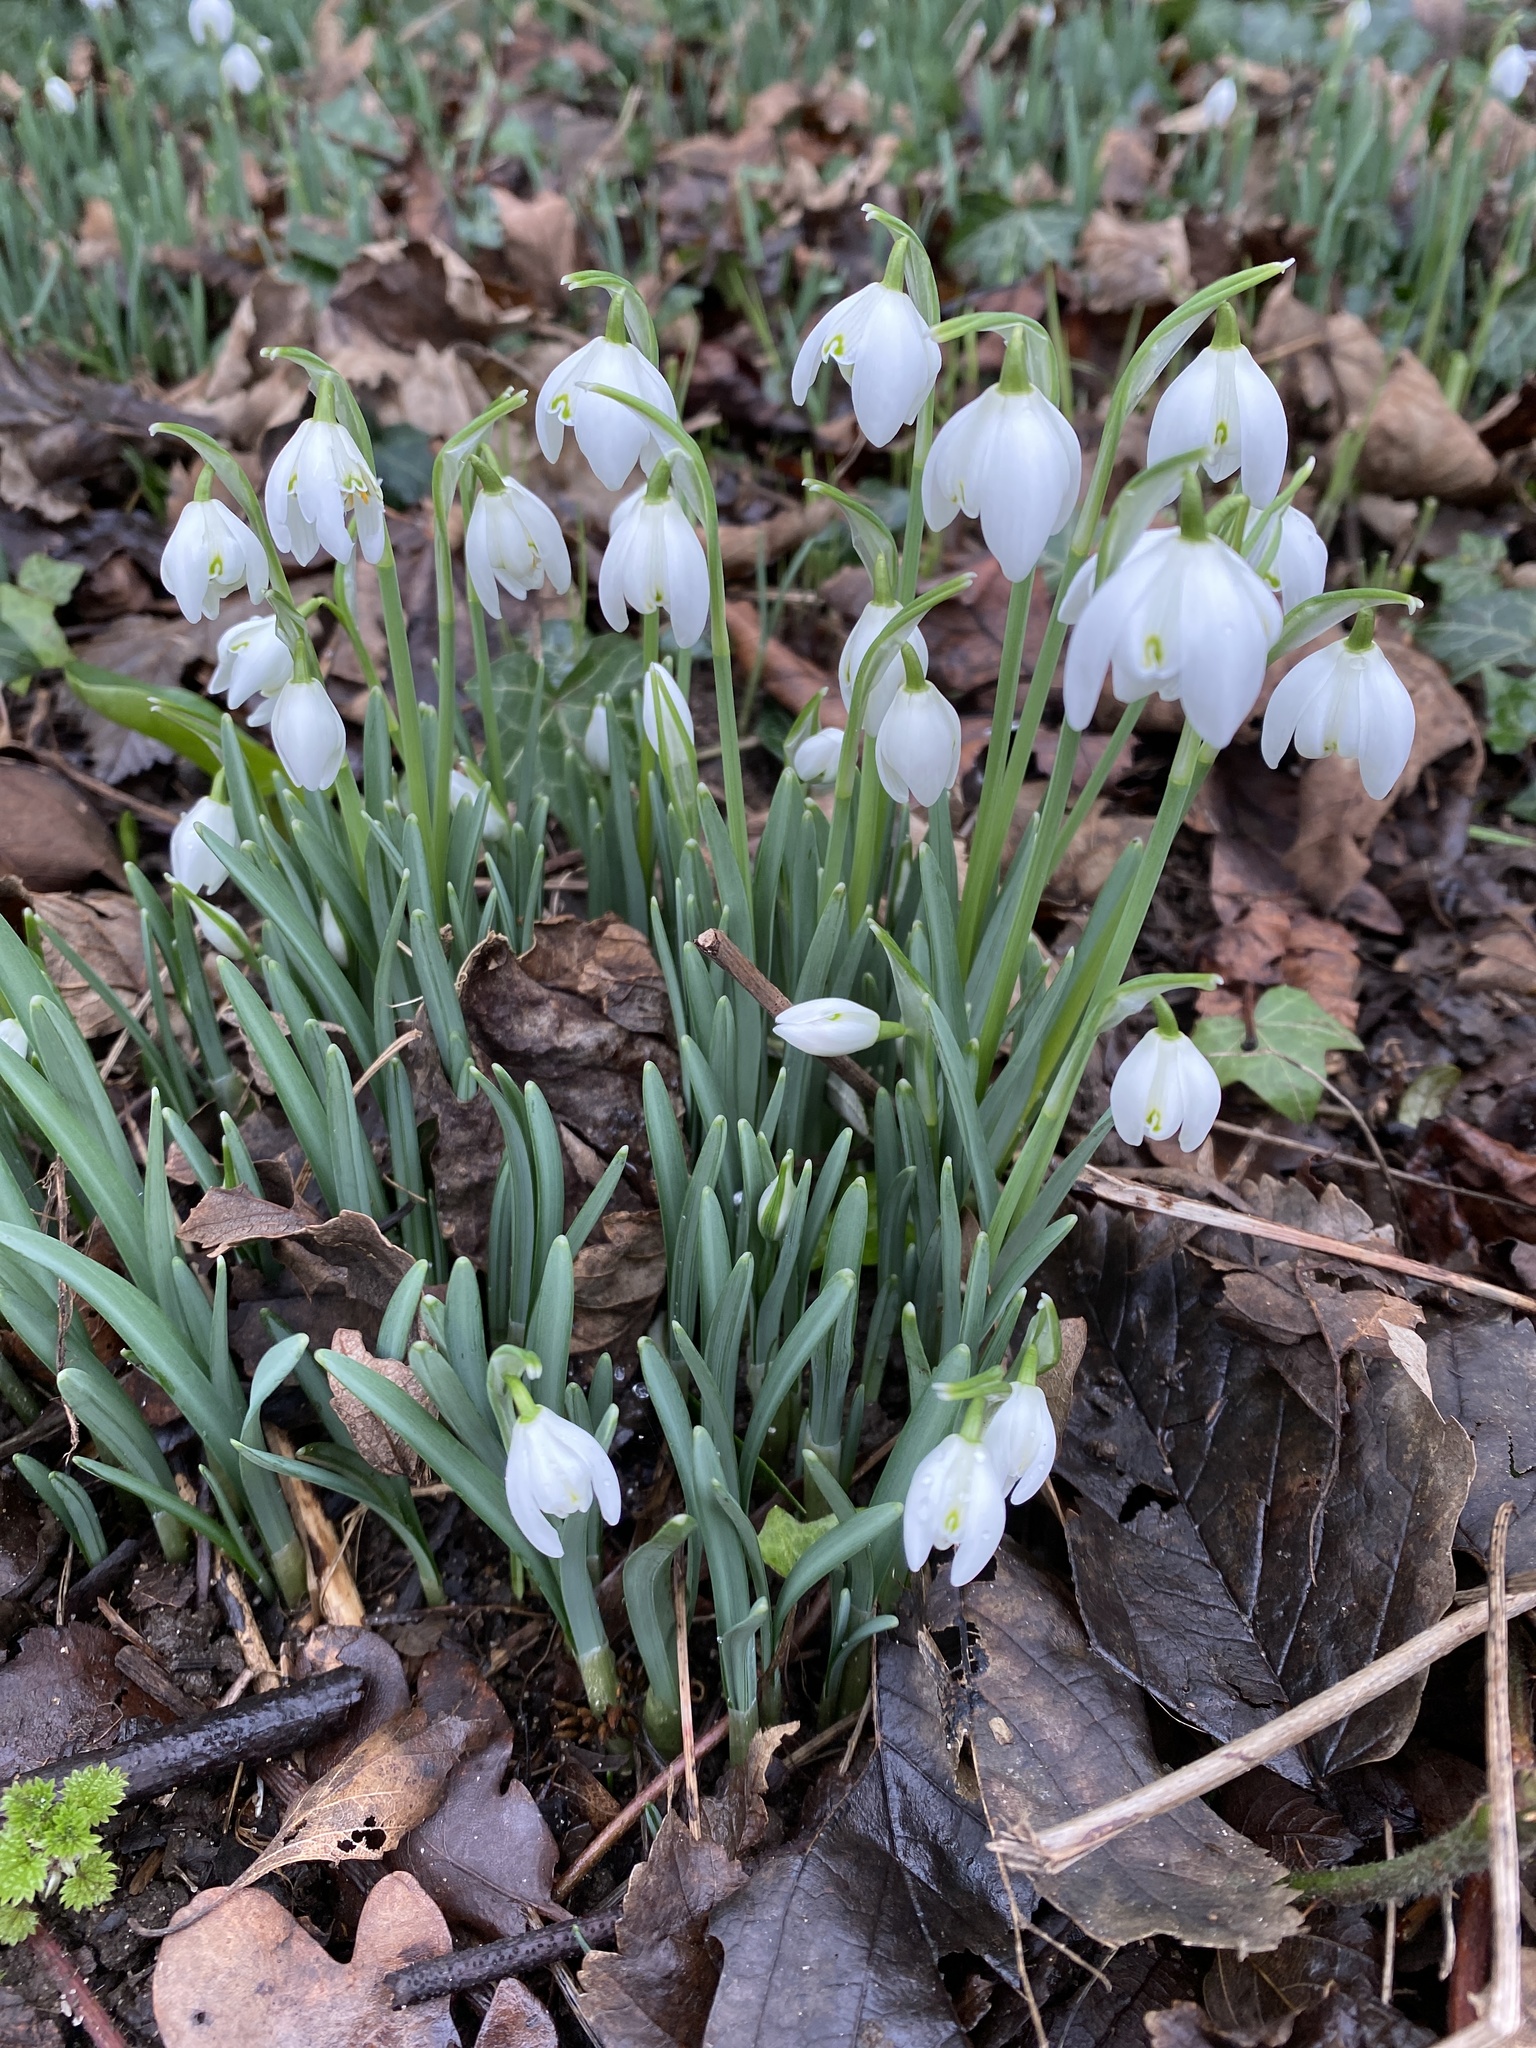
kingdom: Plantae
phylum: Tracheophyta
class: Liliopsida
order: Asparagales
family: Amaryllidaceae
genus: Galanthus
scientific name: Galanthus nivalis
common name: Snowdrop
